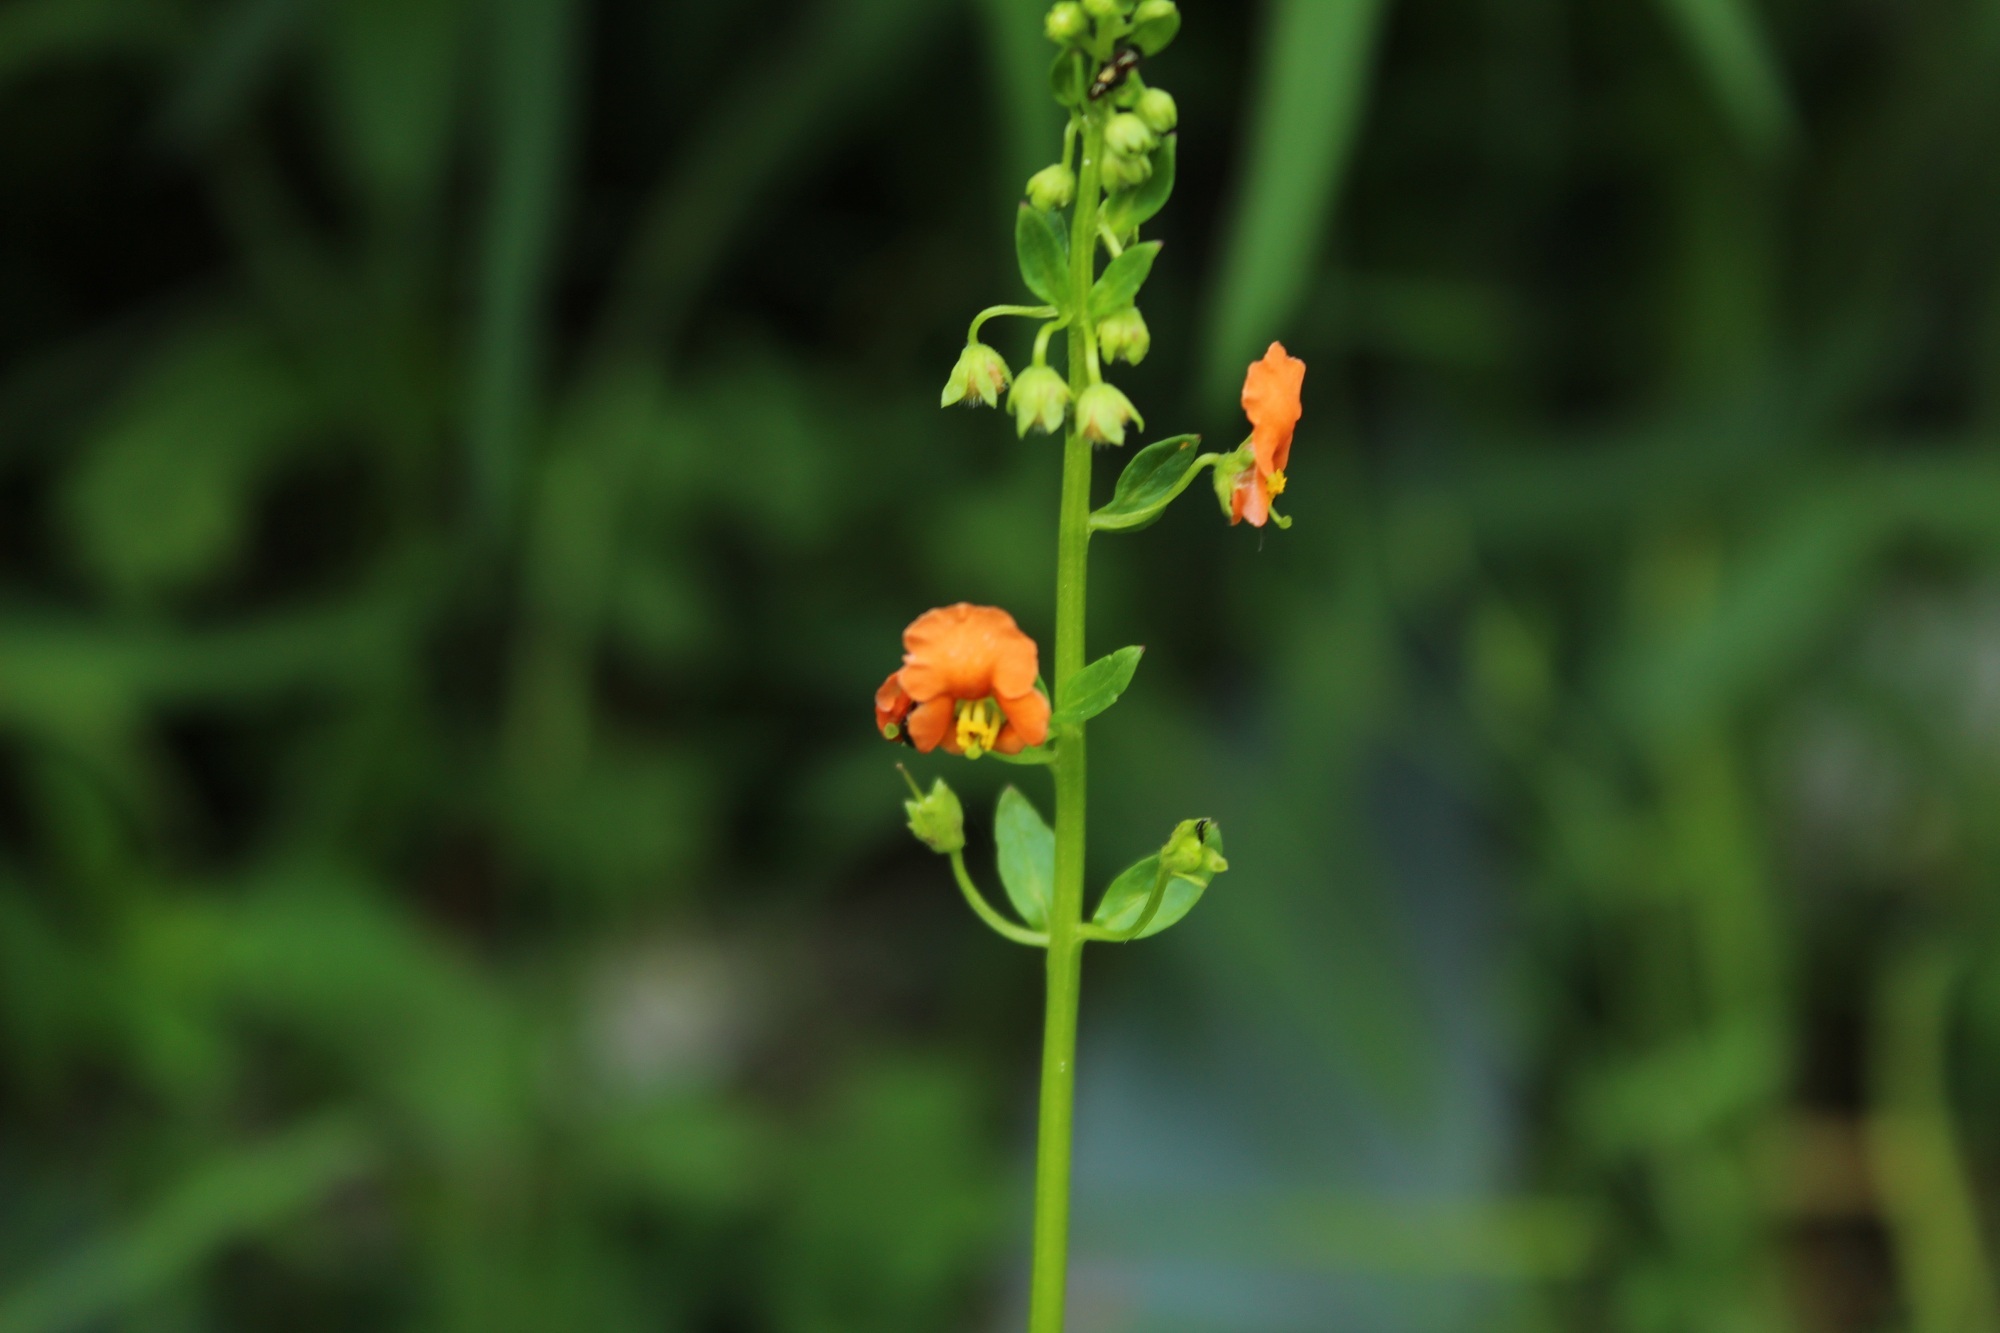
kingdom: Plantae
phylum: Tracheophyta
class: Magnoliopsida
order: Lamiales
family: Scrophulariaceae
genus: Alonsoa
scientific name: Alonsoa meridionalis
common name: Maskflower
